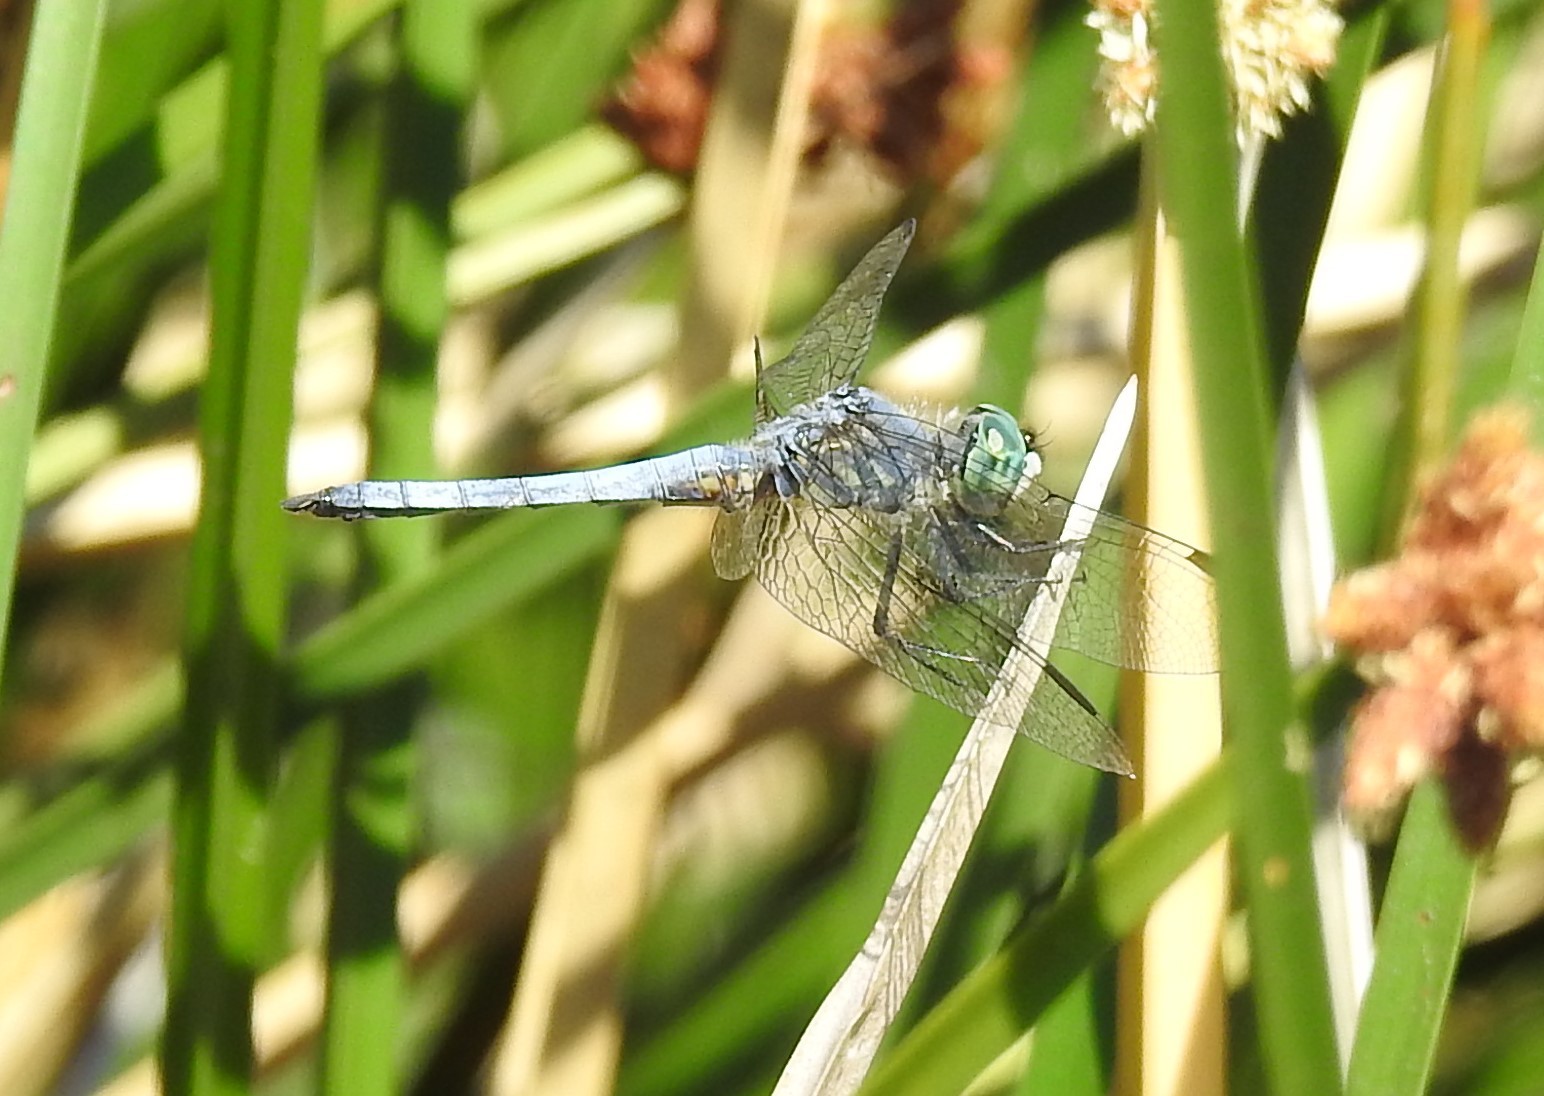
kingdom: Animalia
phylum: Arthropoda
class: Insecta
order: Odonata
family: Libellulidae
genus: Pachydiplax
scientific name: Pachydiplax longipennis
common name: Blue dasher
